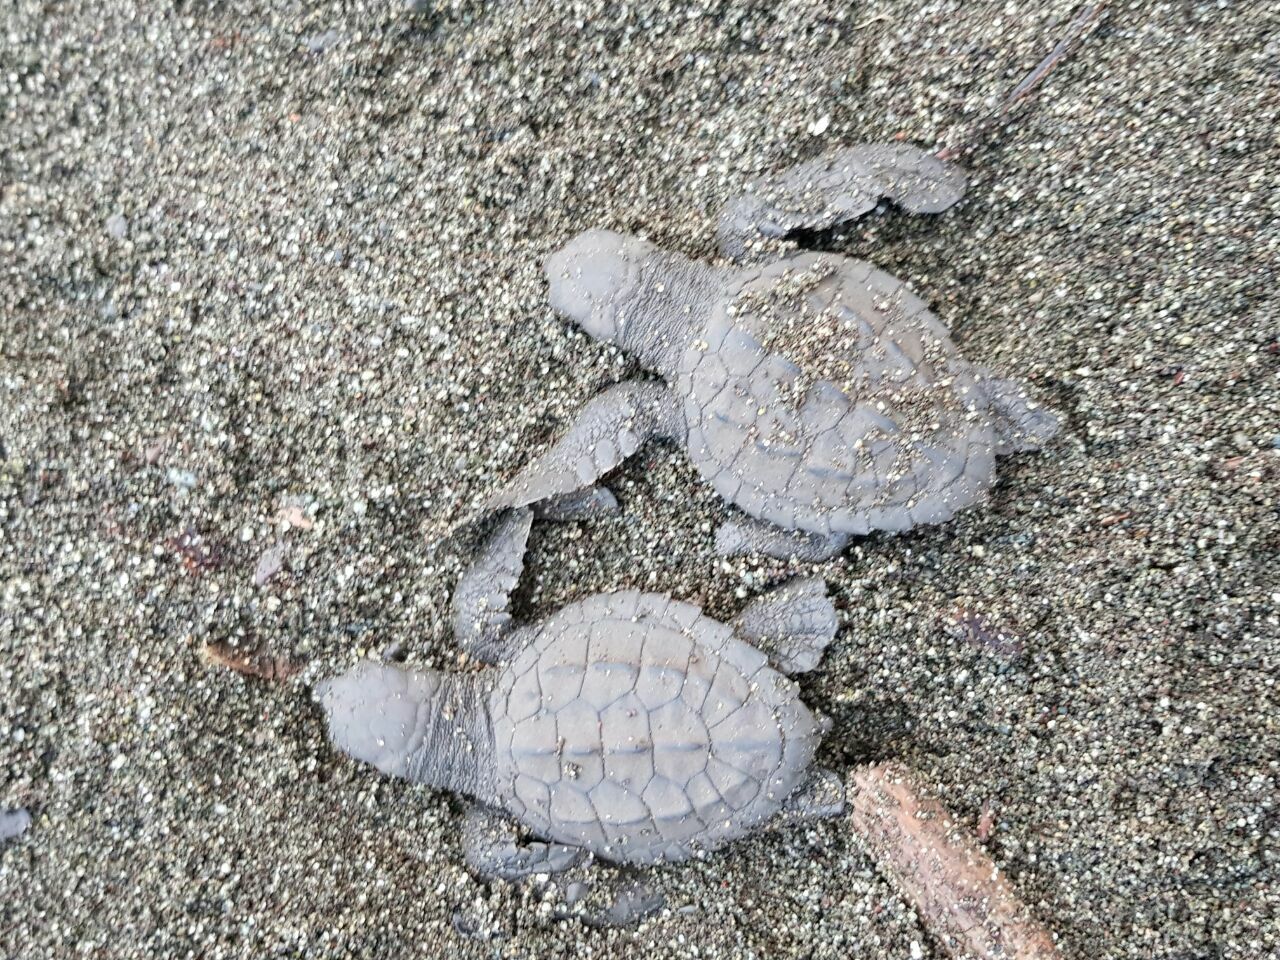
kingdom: Animalia
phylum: Chordata
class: Testudines
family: Cheloniidae
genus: Lepidochelys
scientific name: Lepidochelys olivacea
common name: Olive ridley
